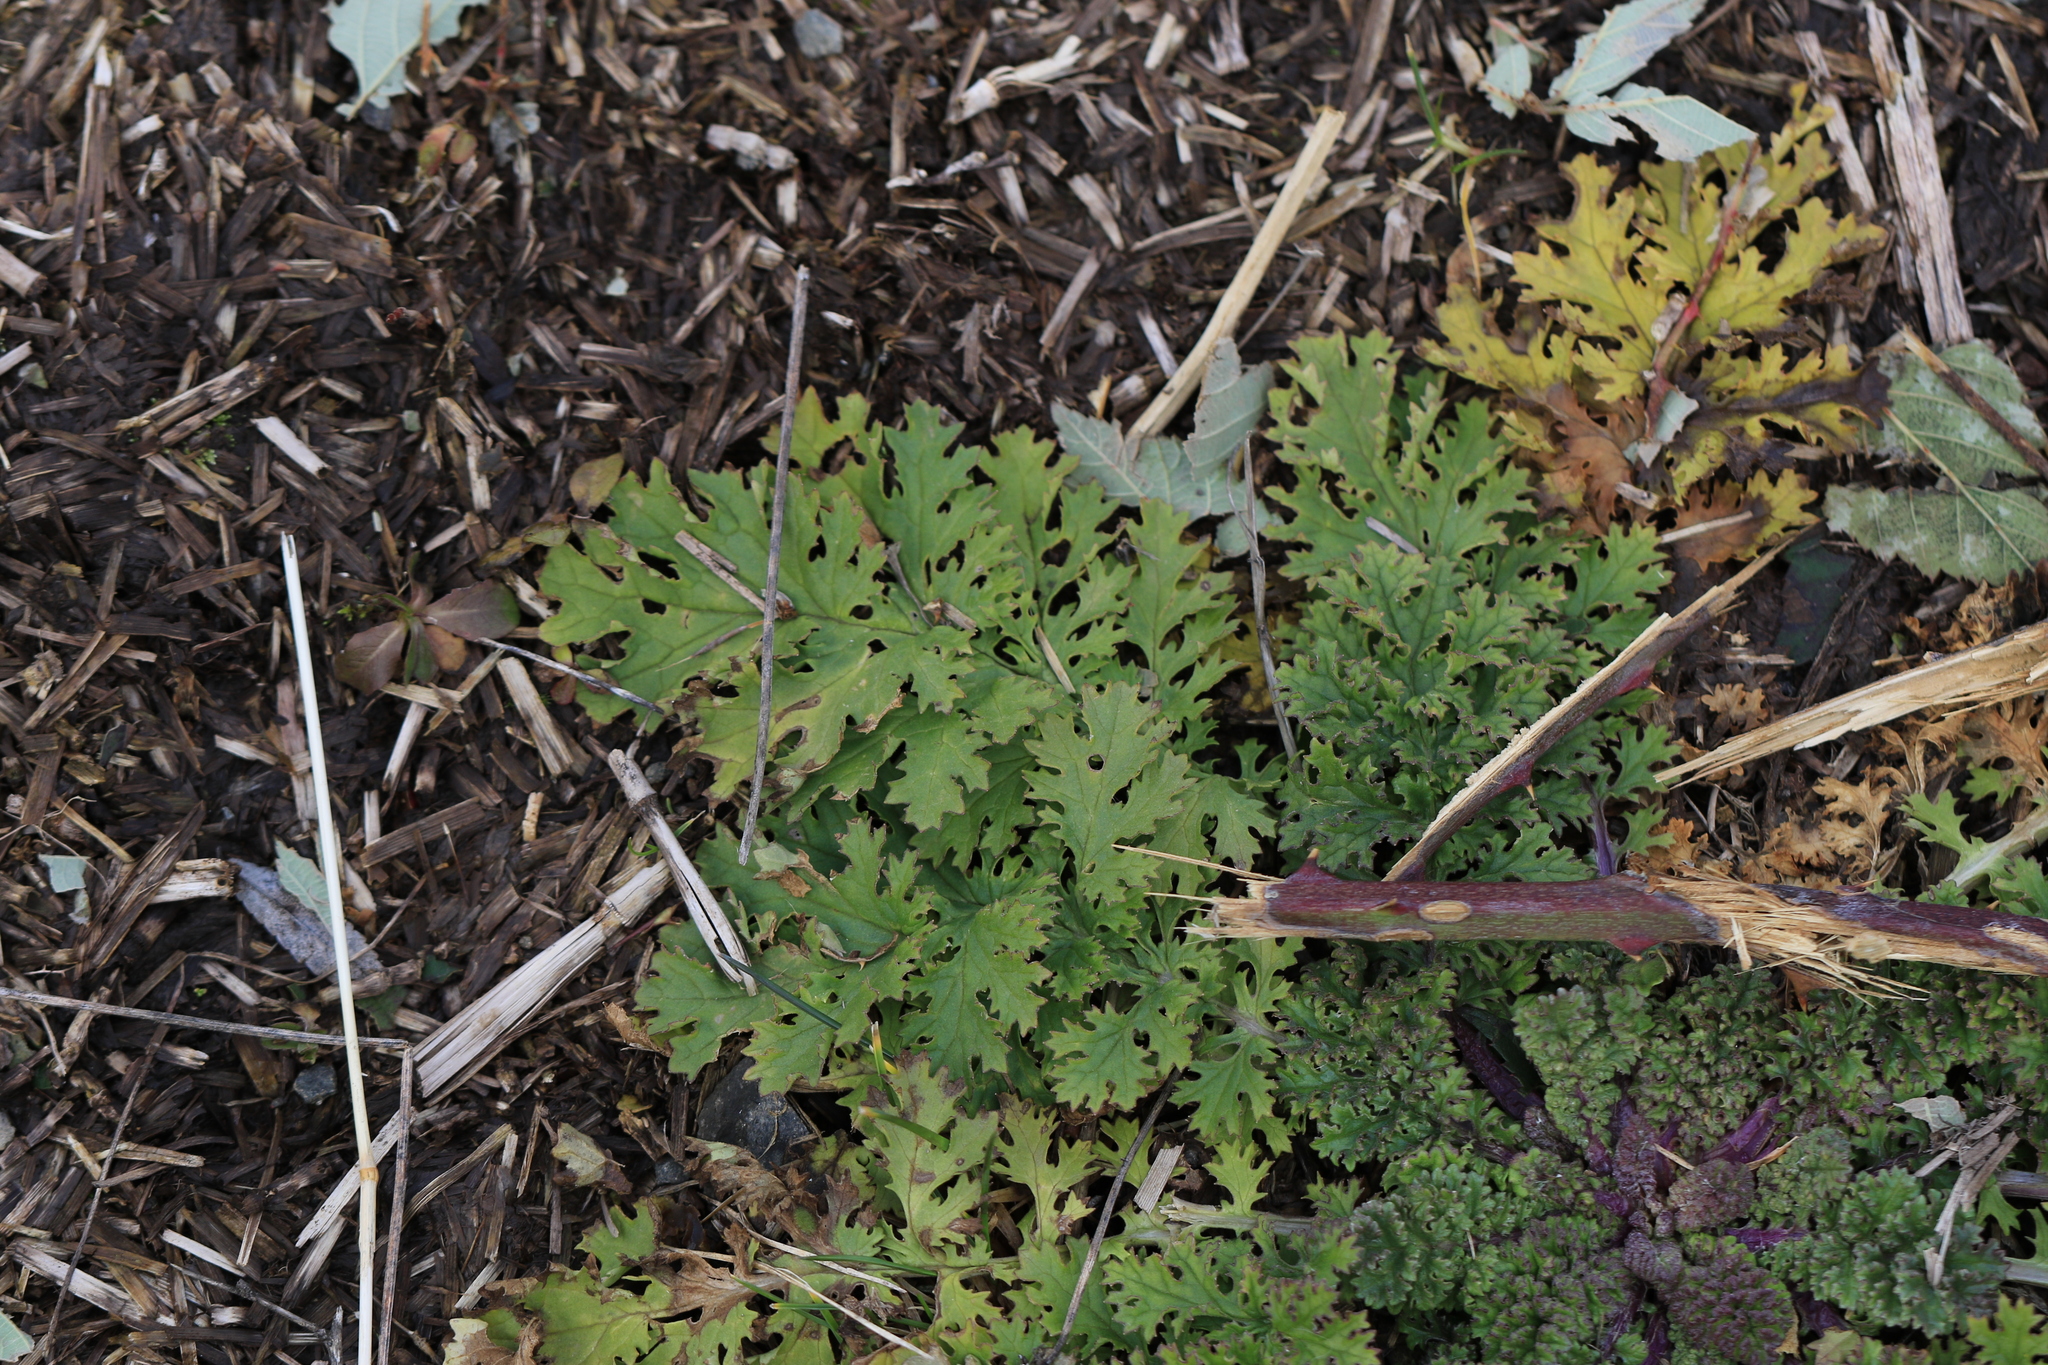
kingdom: Plantae
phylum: Tracheophyta
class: Magnoliopsida
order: Asterales
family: Asteraceae
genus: Jacobaea
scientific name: Jacobaea vulgaris
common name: Stinking willie
